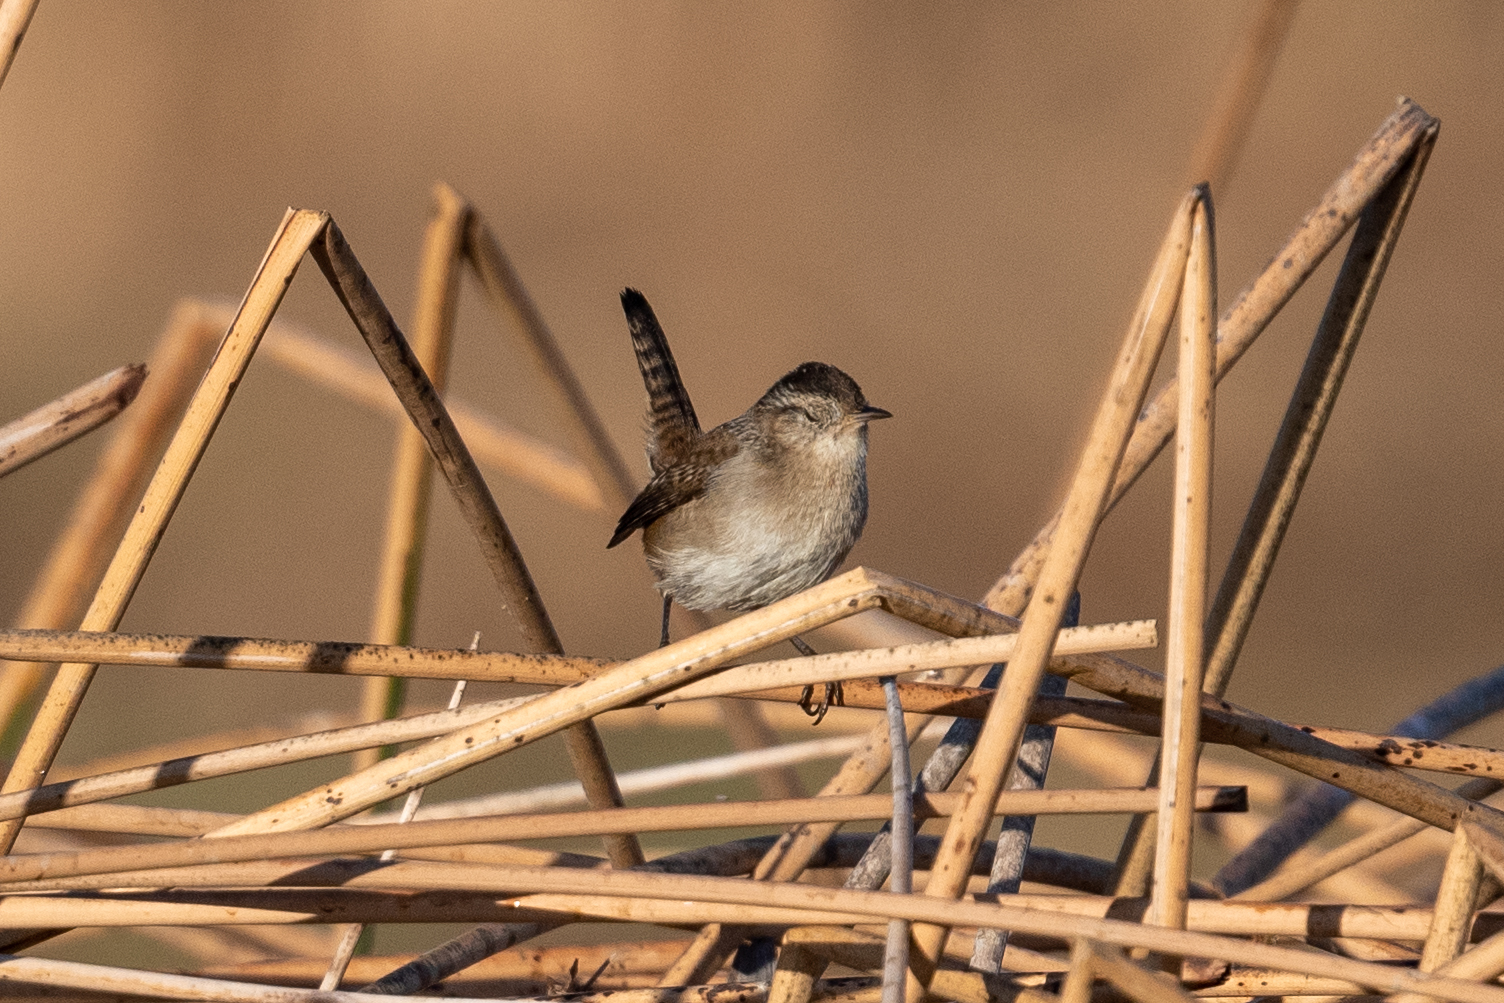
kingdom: Animalia
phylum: Chordata
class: Aves
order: Passeriformes
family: Troglodytidae
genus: Cistothorus
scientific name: Cistothorus palustris
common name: Marsh wren
